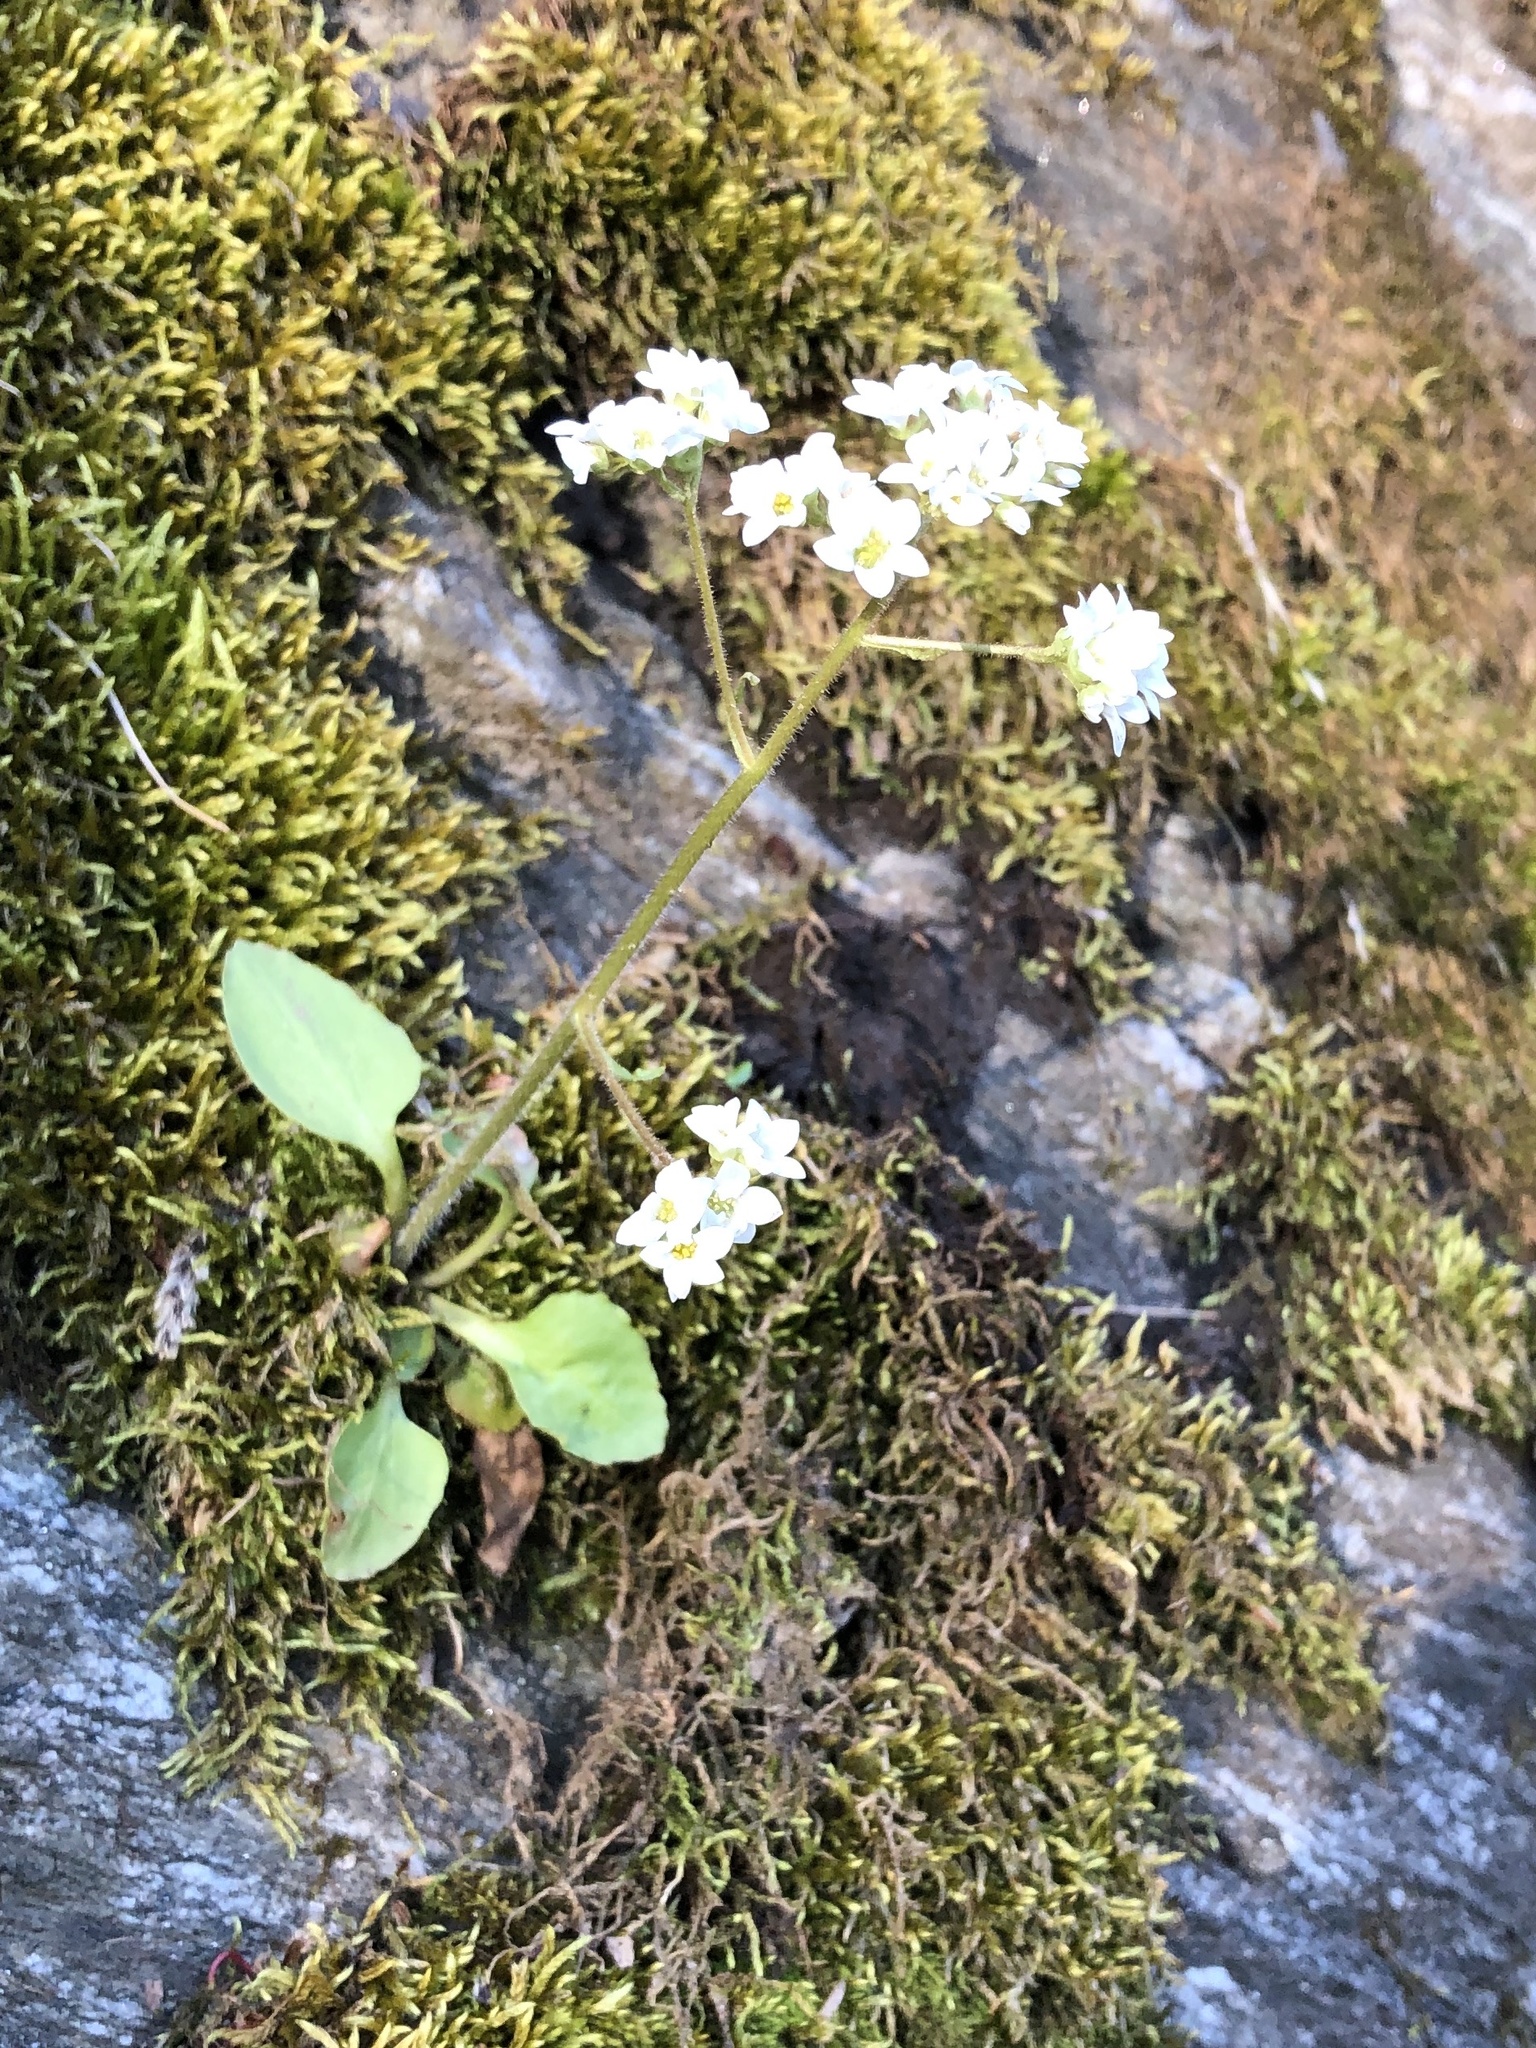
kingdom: Plantae
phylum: Tracheophyta
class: Magnoliopsida
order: Saxifragales
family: Saxifragaceae
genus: Micranthes
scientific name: Micranthes virginiensis
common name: Early saxifrage
